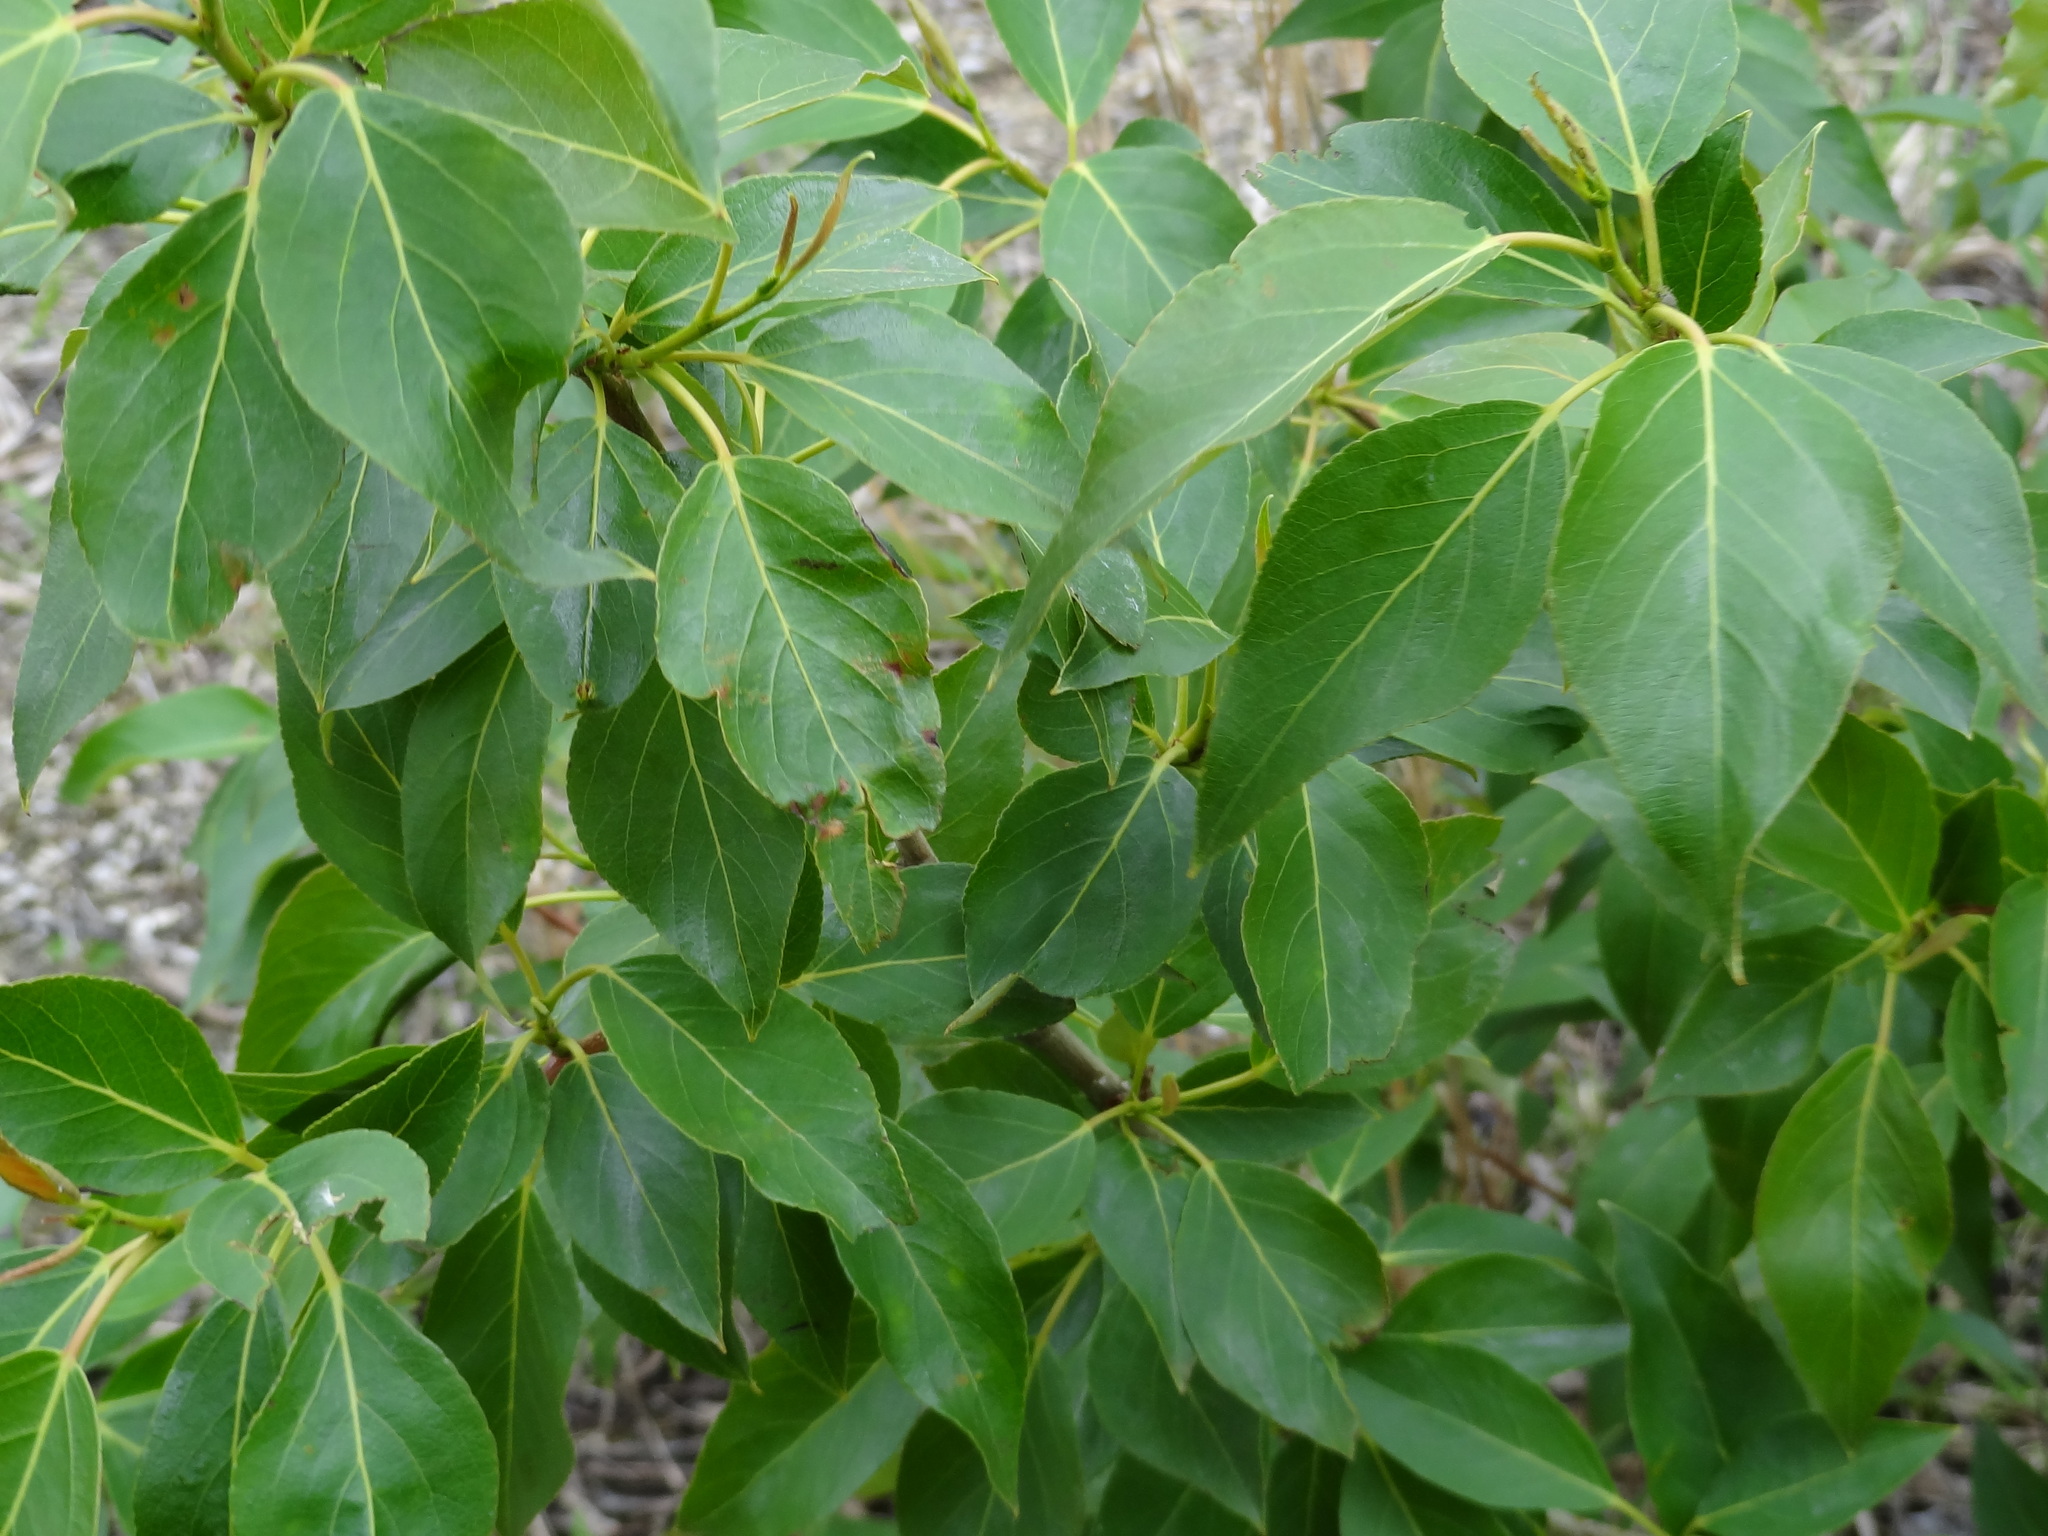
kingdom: Plantae
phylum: Tracheophyta
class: Magnoliopsida
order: Malpighiales
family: Salicaceae
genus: Populus
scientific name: Populus balsamifera
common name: Balsam poplar
